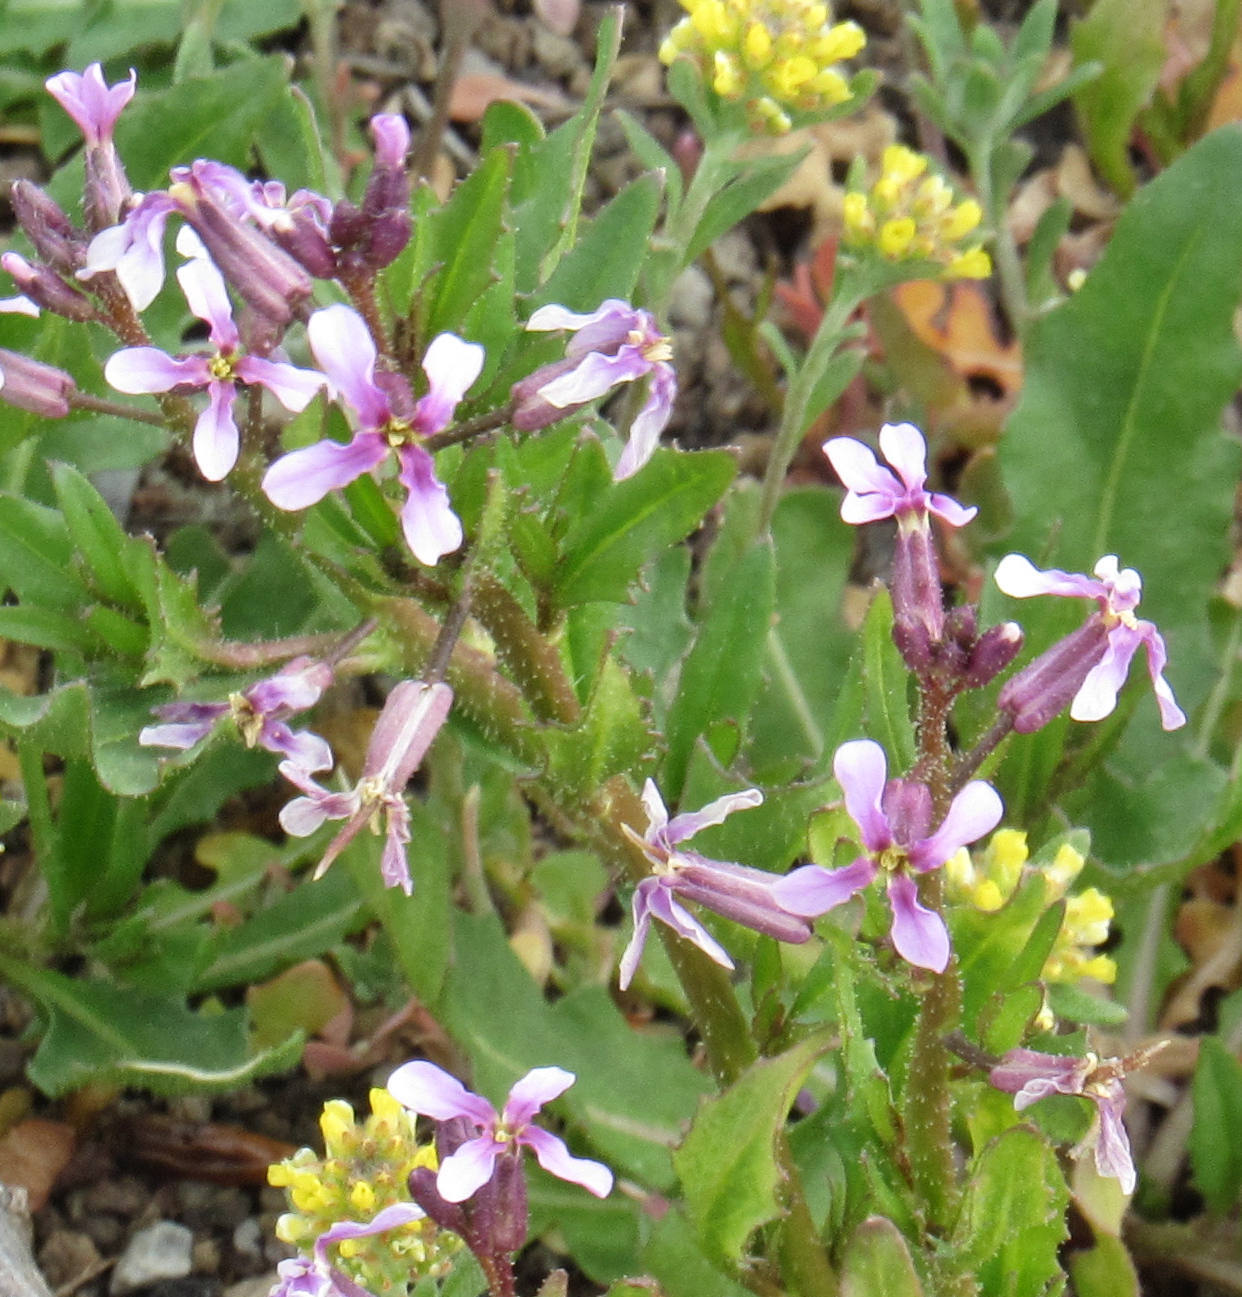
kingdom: Plantae
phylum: Tracheophyta
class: Magnoliopsida
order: Brassicales
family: Brassicaceae
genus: Chorispora
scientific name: Chorispora tenella
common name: Crossflower
